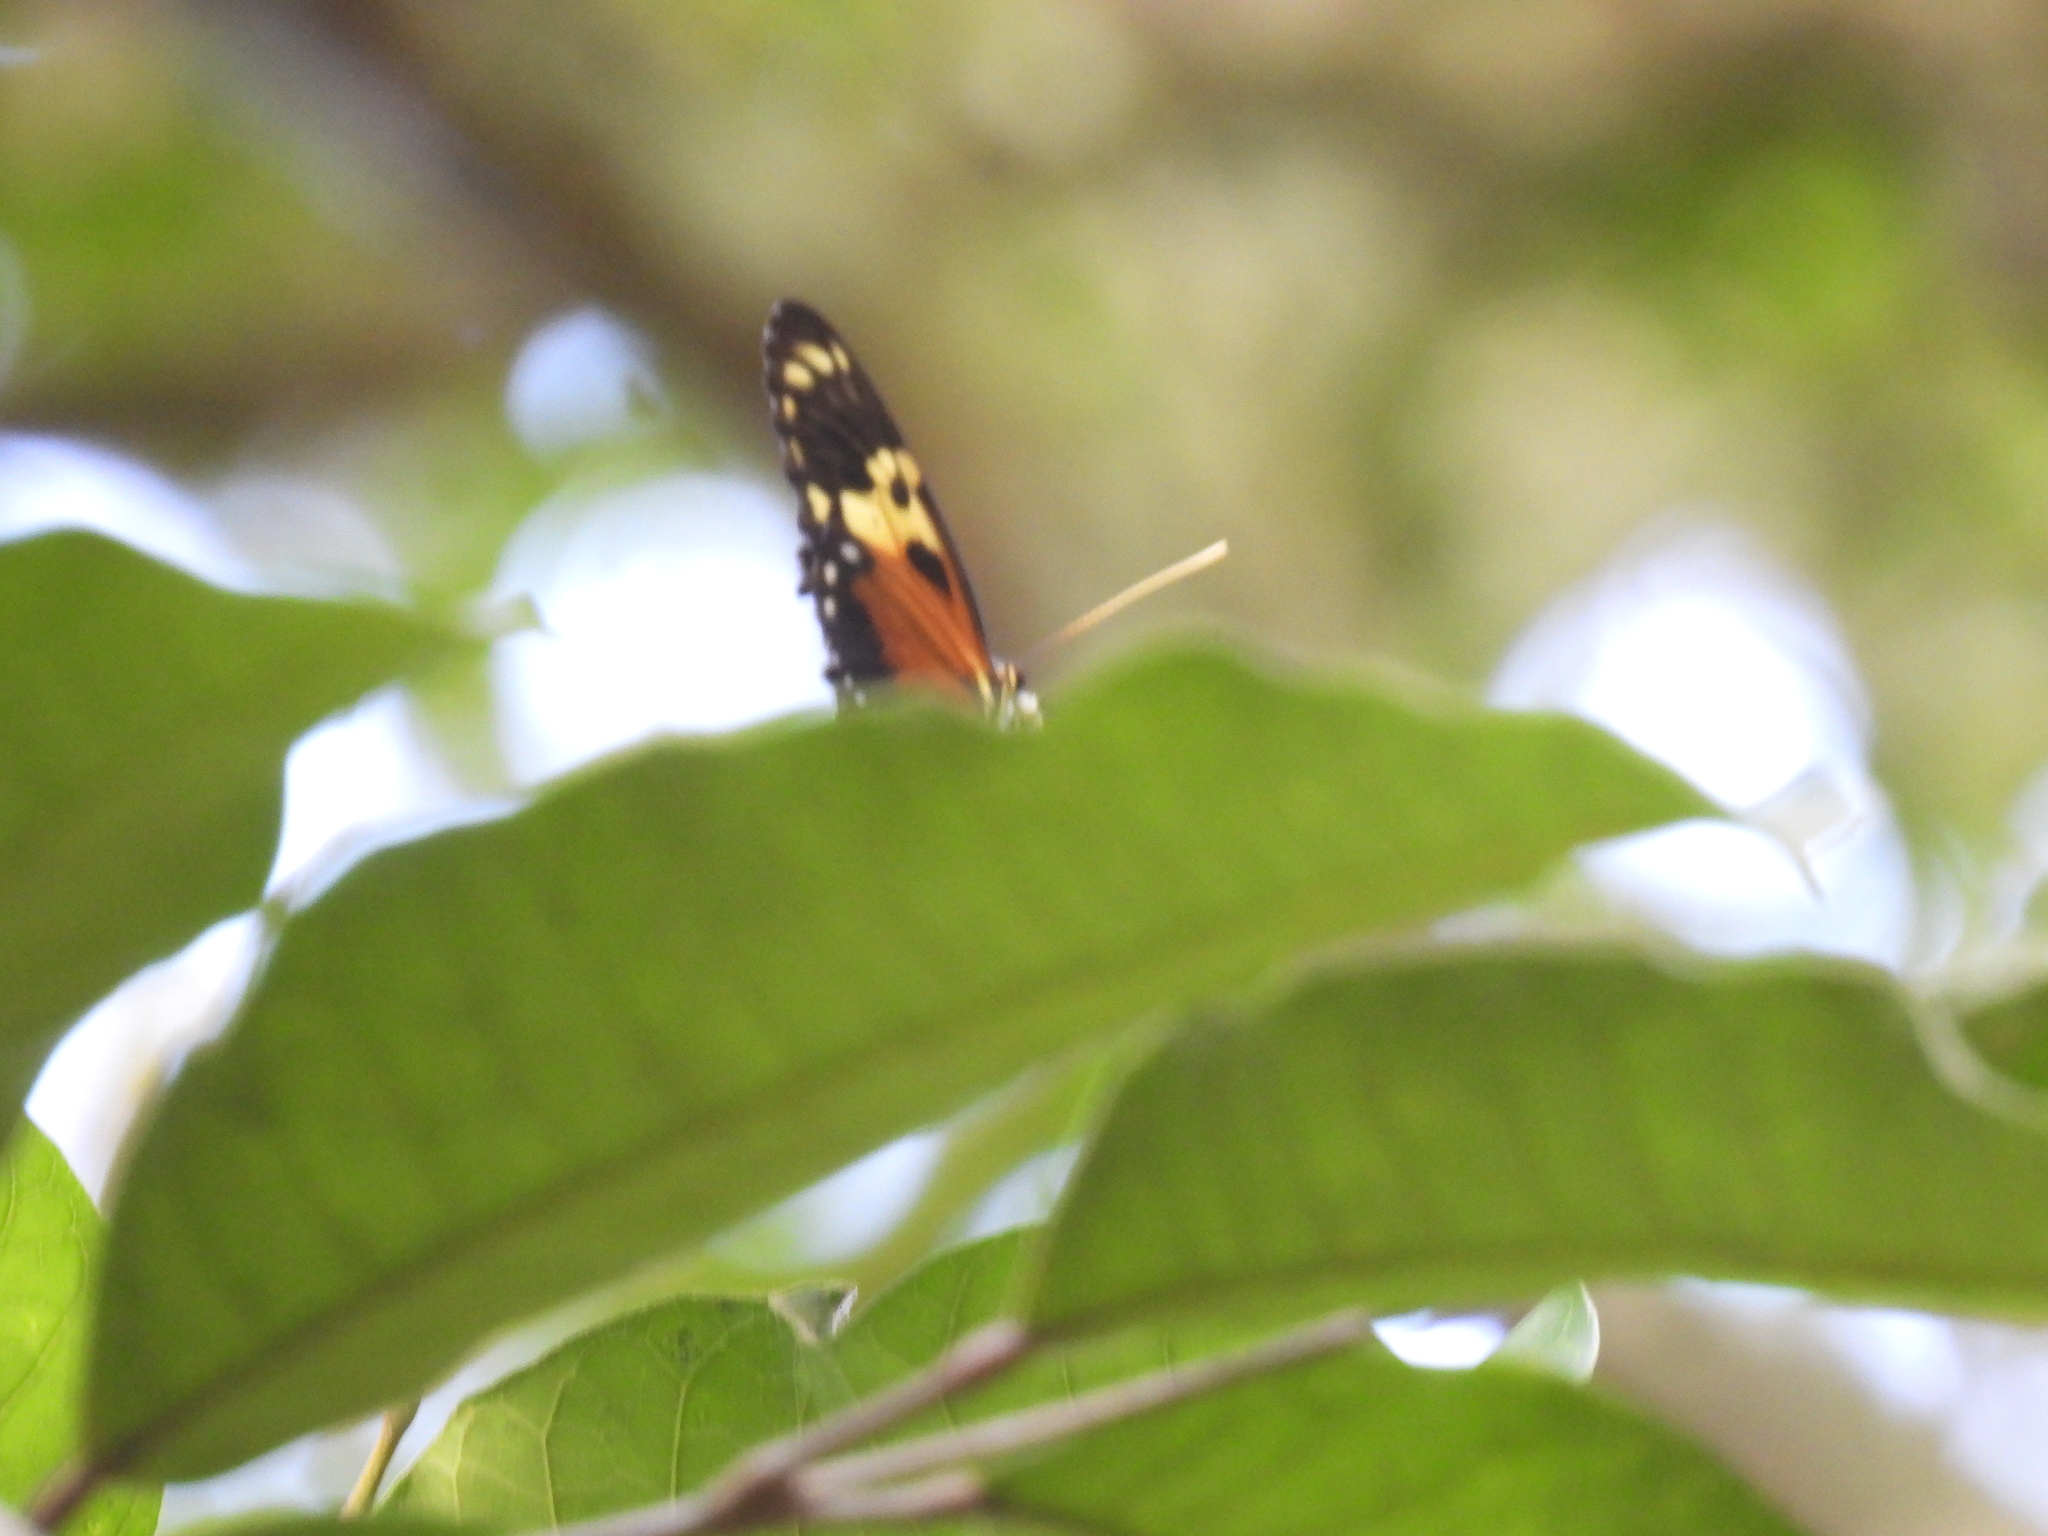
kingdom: Animalia
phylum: Arthropoda
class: Insecta
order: Lepidoptera
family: Nymphalidae
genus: Heliconius
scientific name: Heliconius hecale
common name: Tiger longwing
